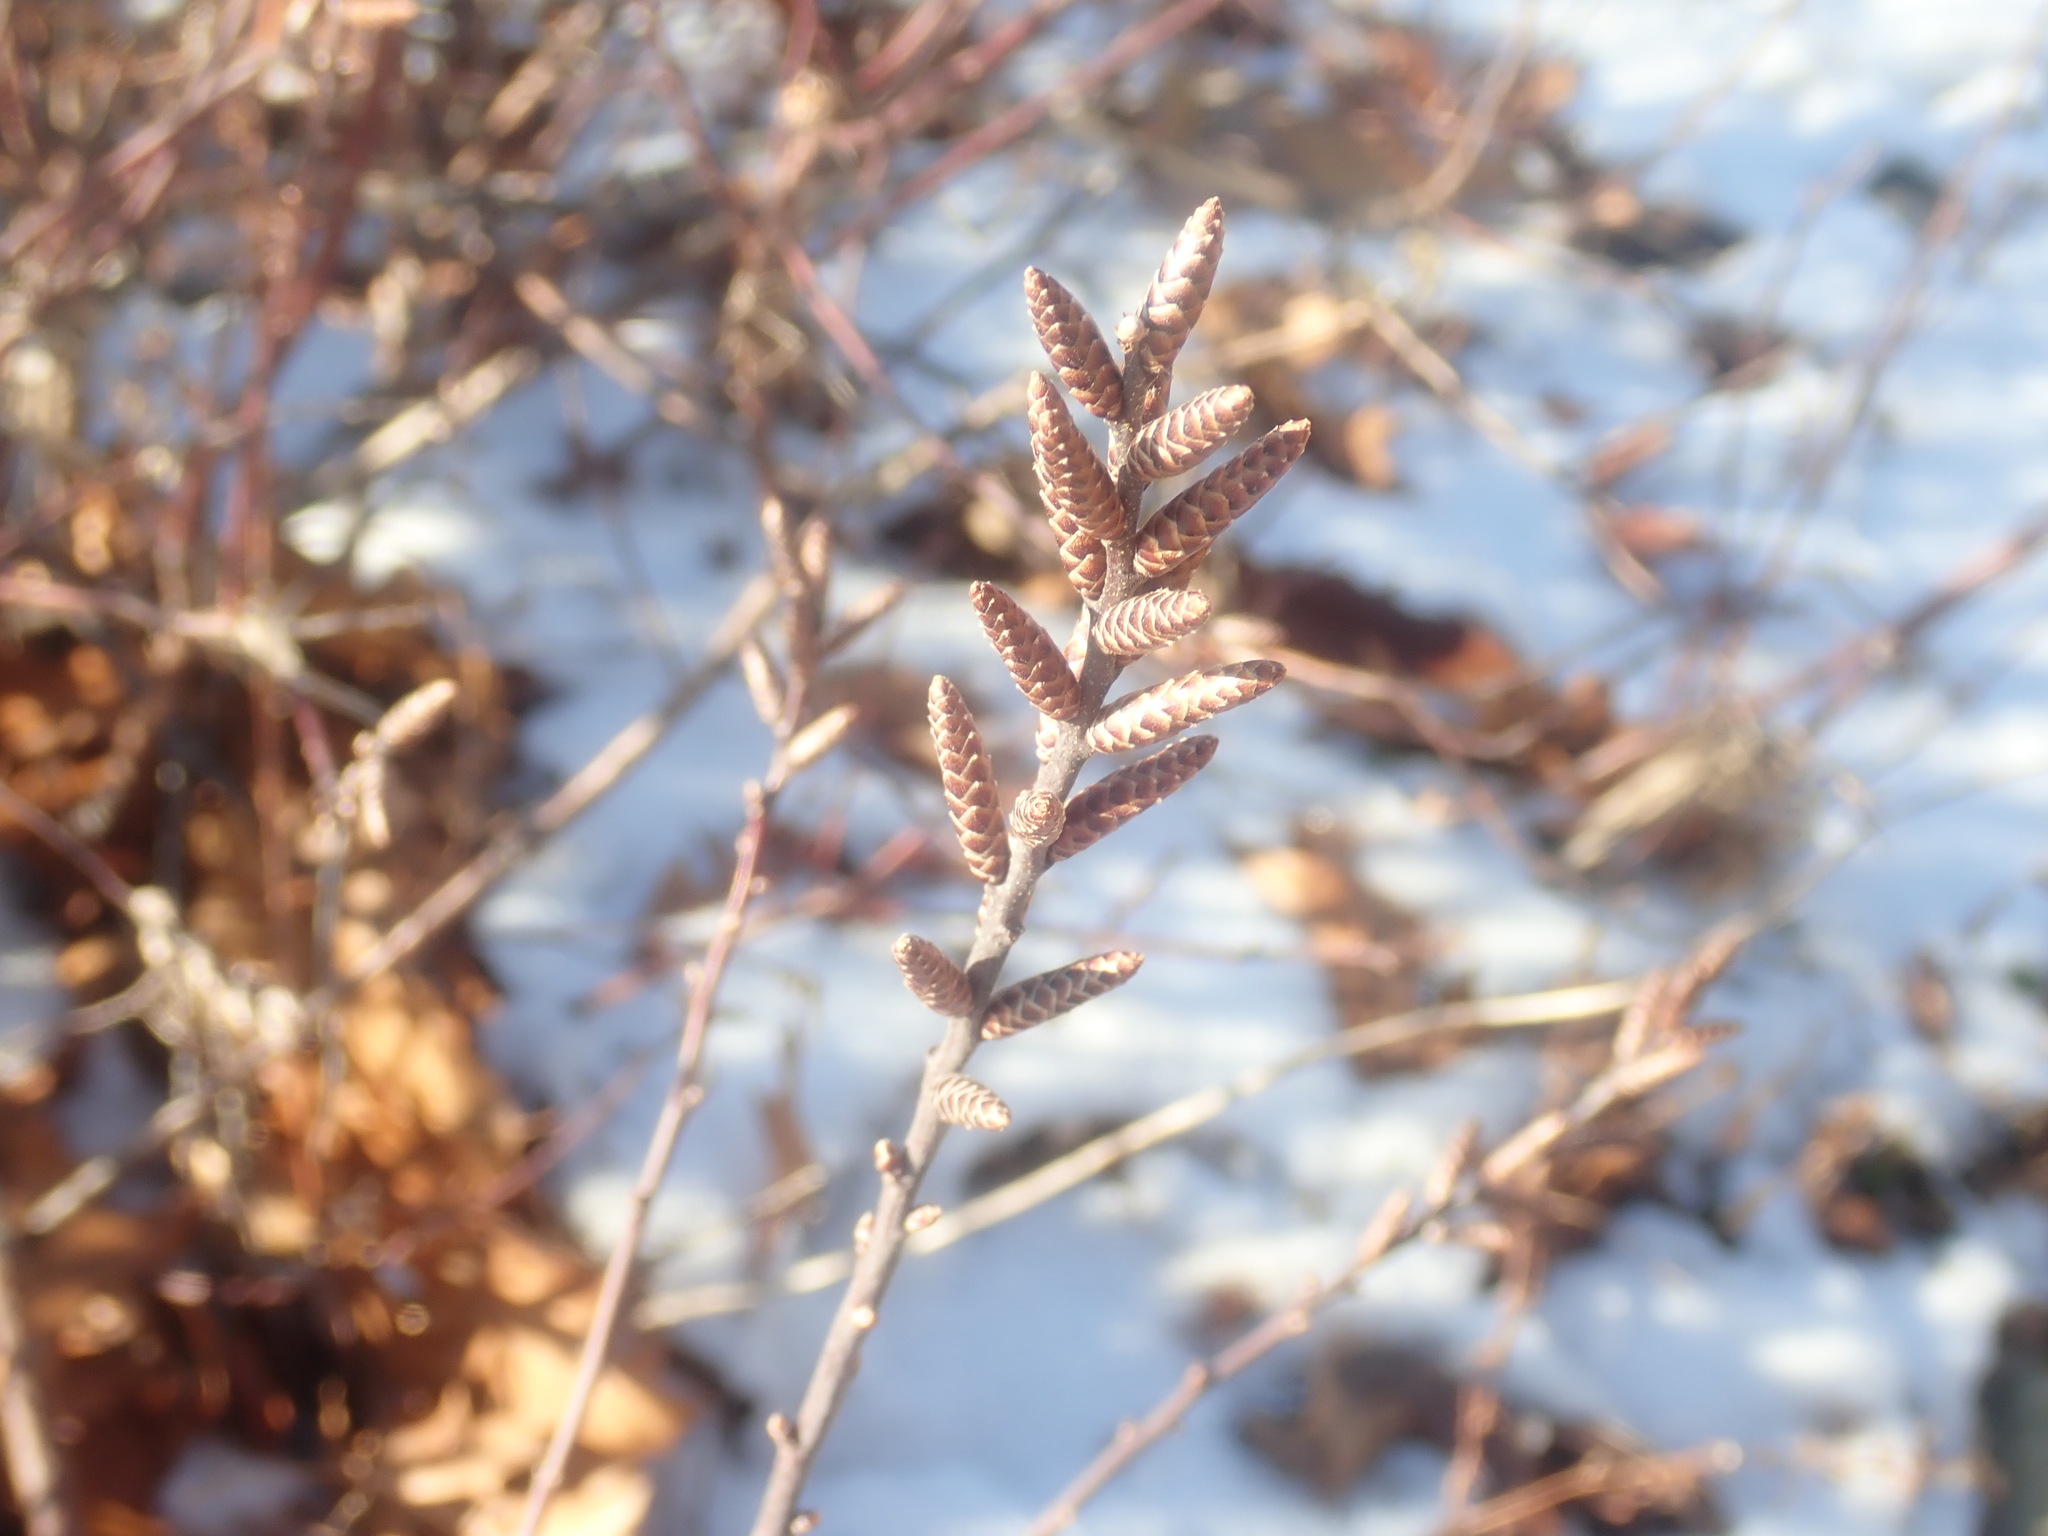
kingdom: Plantae
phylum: Tracheophyta
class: Magnoliopsida
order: Fagales
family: Myricaceae
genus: Myrica
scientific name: Myrica gale
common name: Sweet gale
